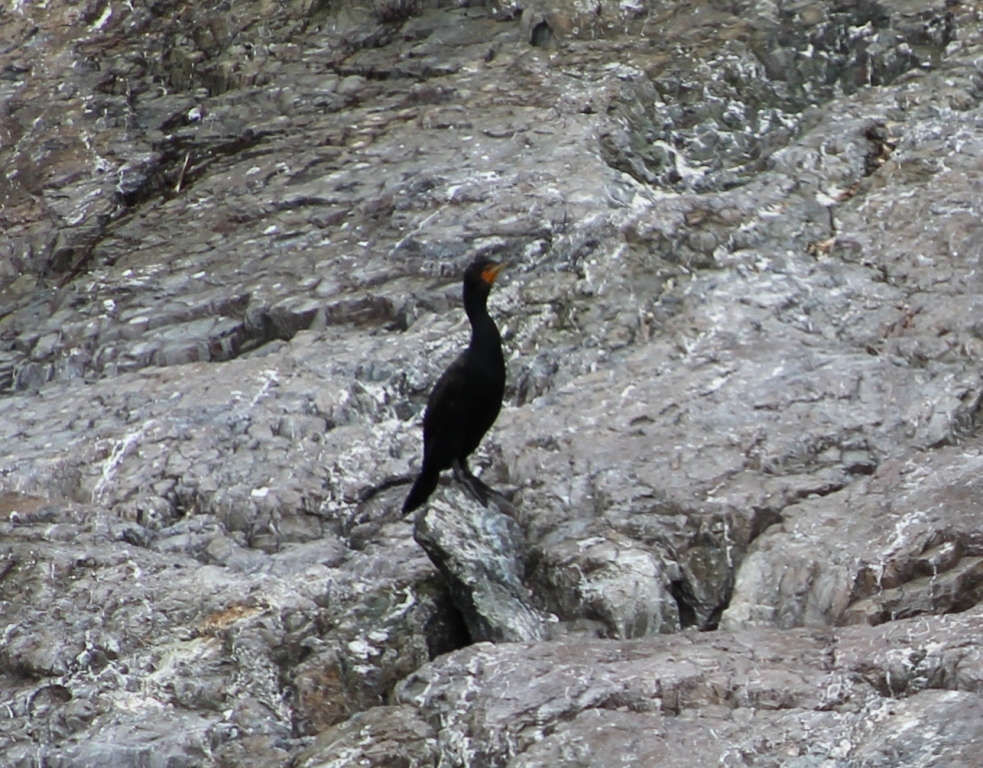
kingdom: Animalia
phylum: Chordata
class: Aves
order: Suliformes
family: Phalacrocoracidae
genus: Phalacrocorax
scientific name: Phalacrocorax auritus
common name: Double-crested cormorant
